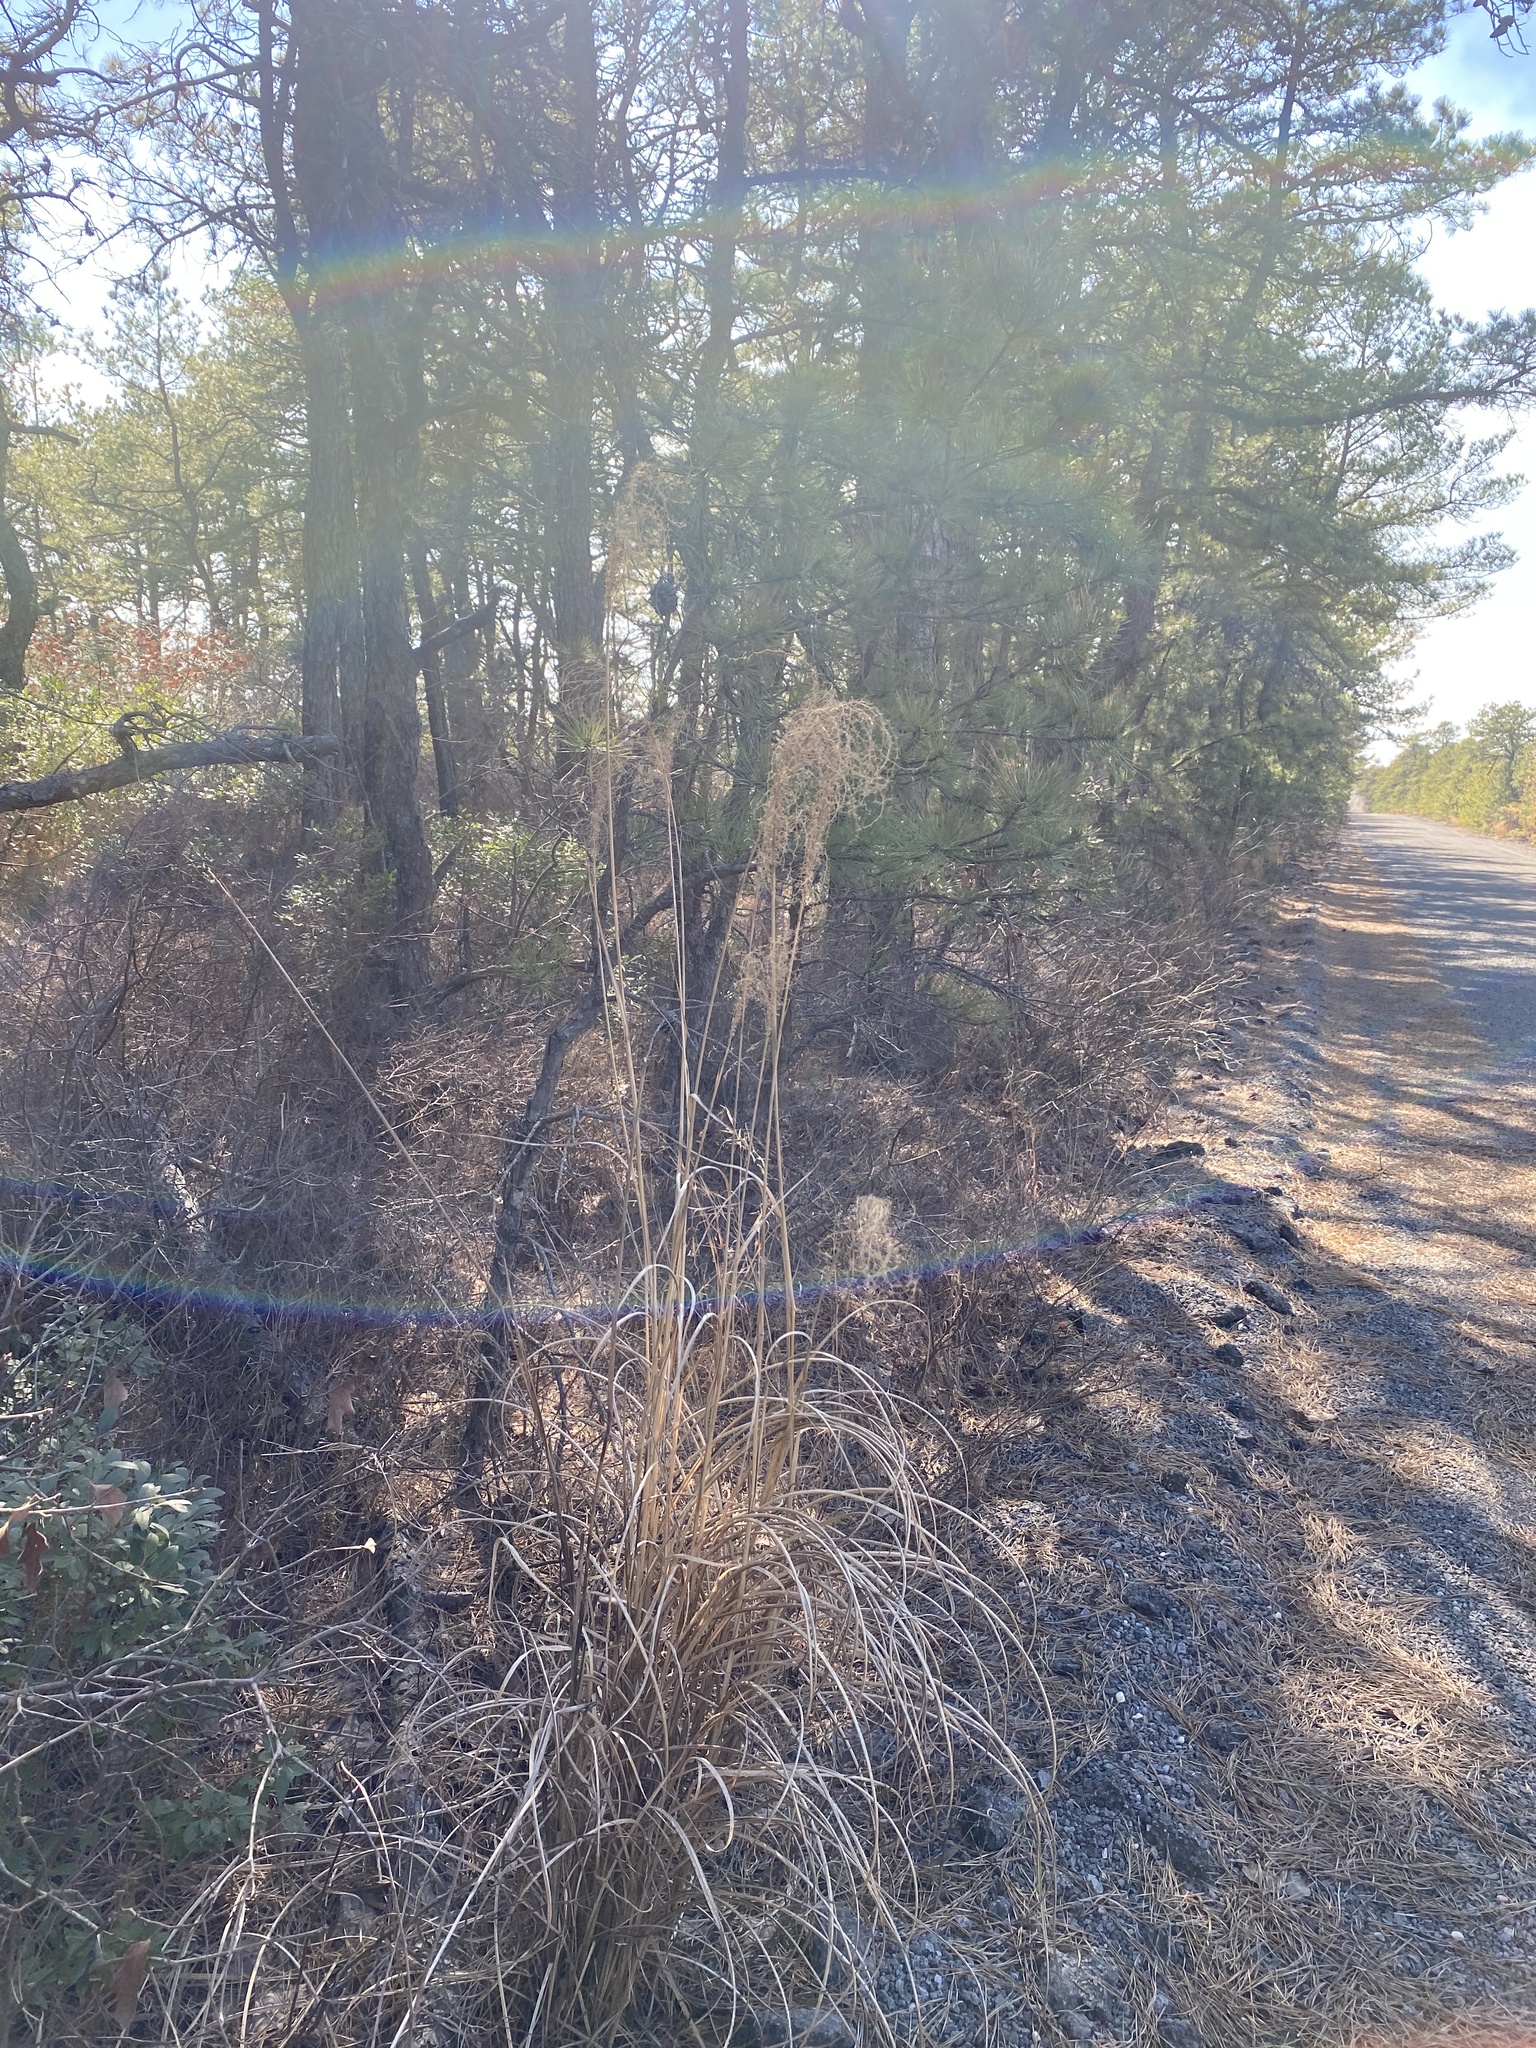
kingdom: Plantae
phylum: Tracheophyta
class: Liliopsida
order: Poales
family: Poaceae
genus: Miscanthus
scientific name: Miscanthus sinensis
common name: Chinese silvergrass
